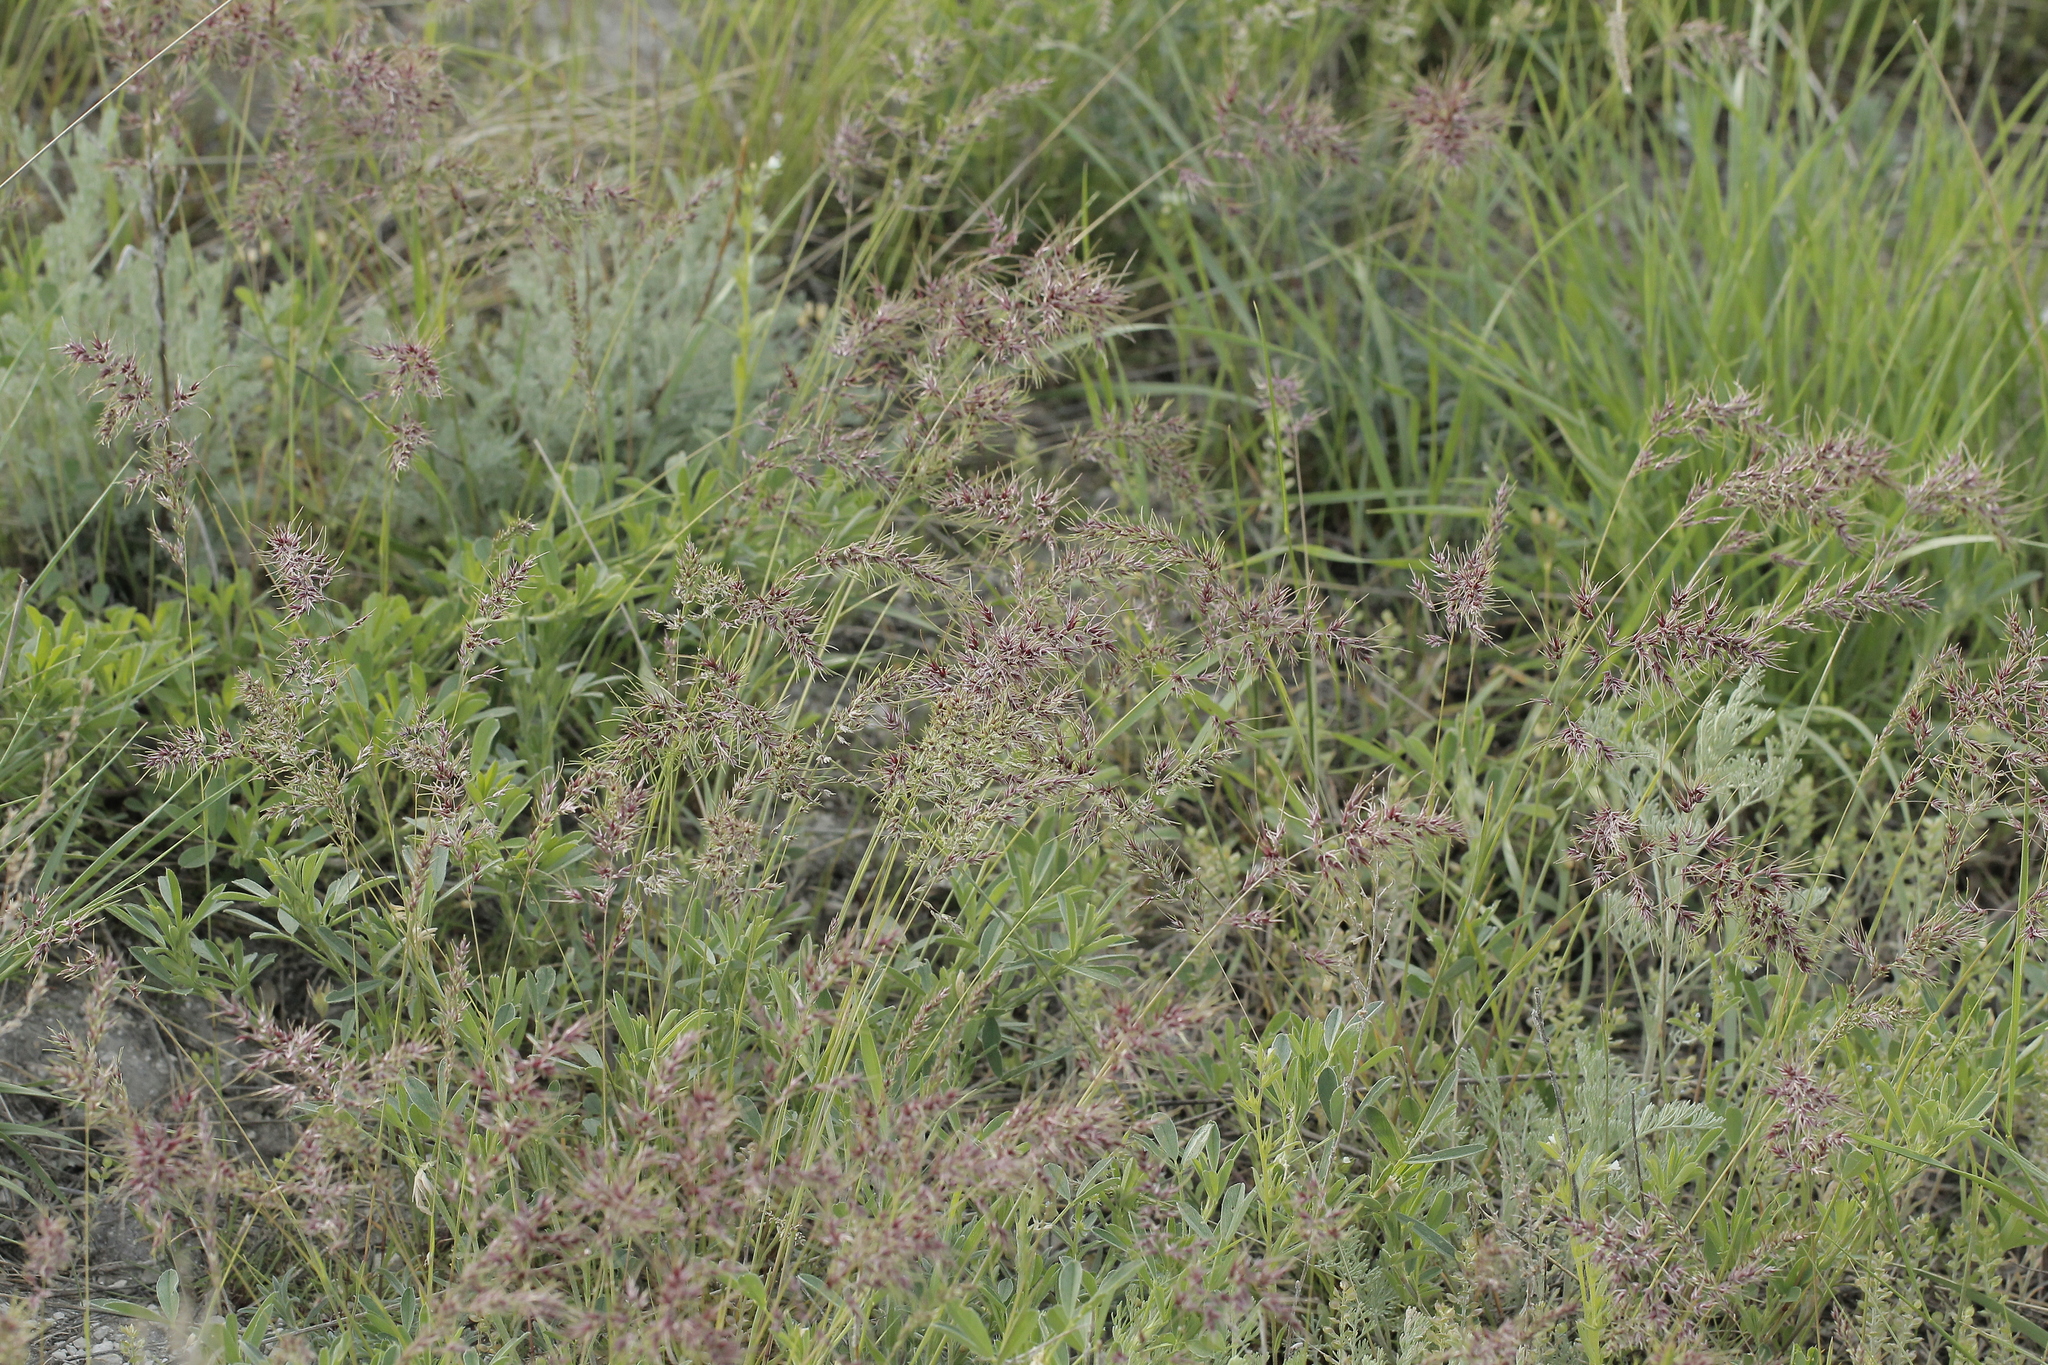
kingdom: Plantae
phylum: Tracheophyta
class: Liliopsida
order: Poales
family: Poaceae
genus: Poa
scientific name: Poa bulbosa
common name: Bulbous bluegrass
